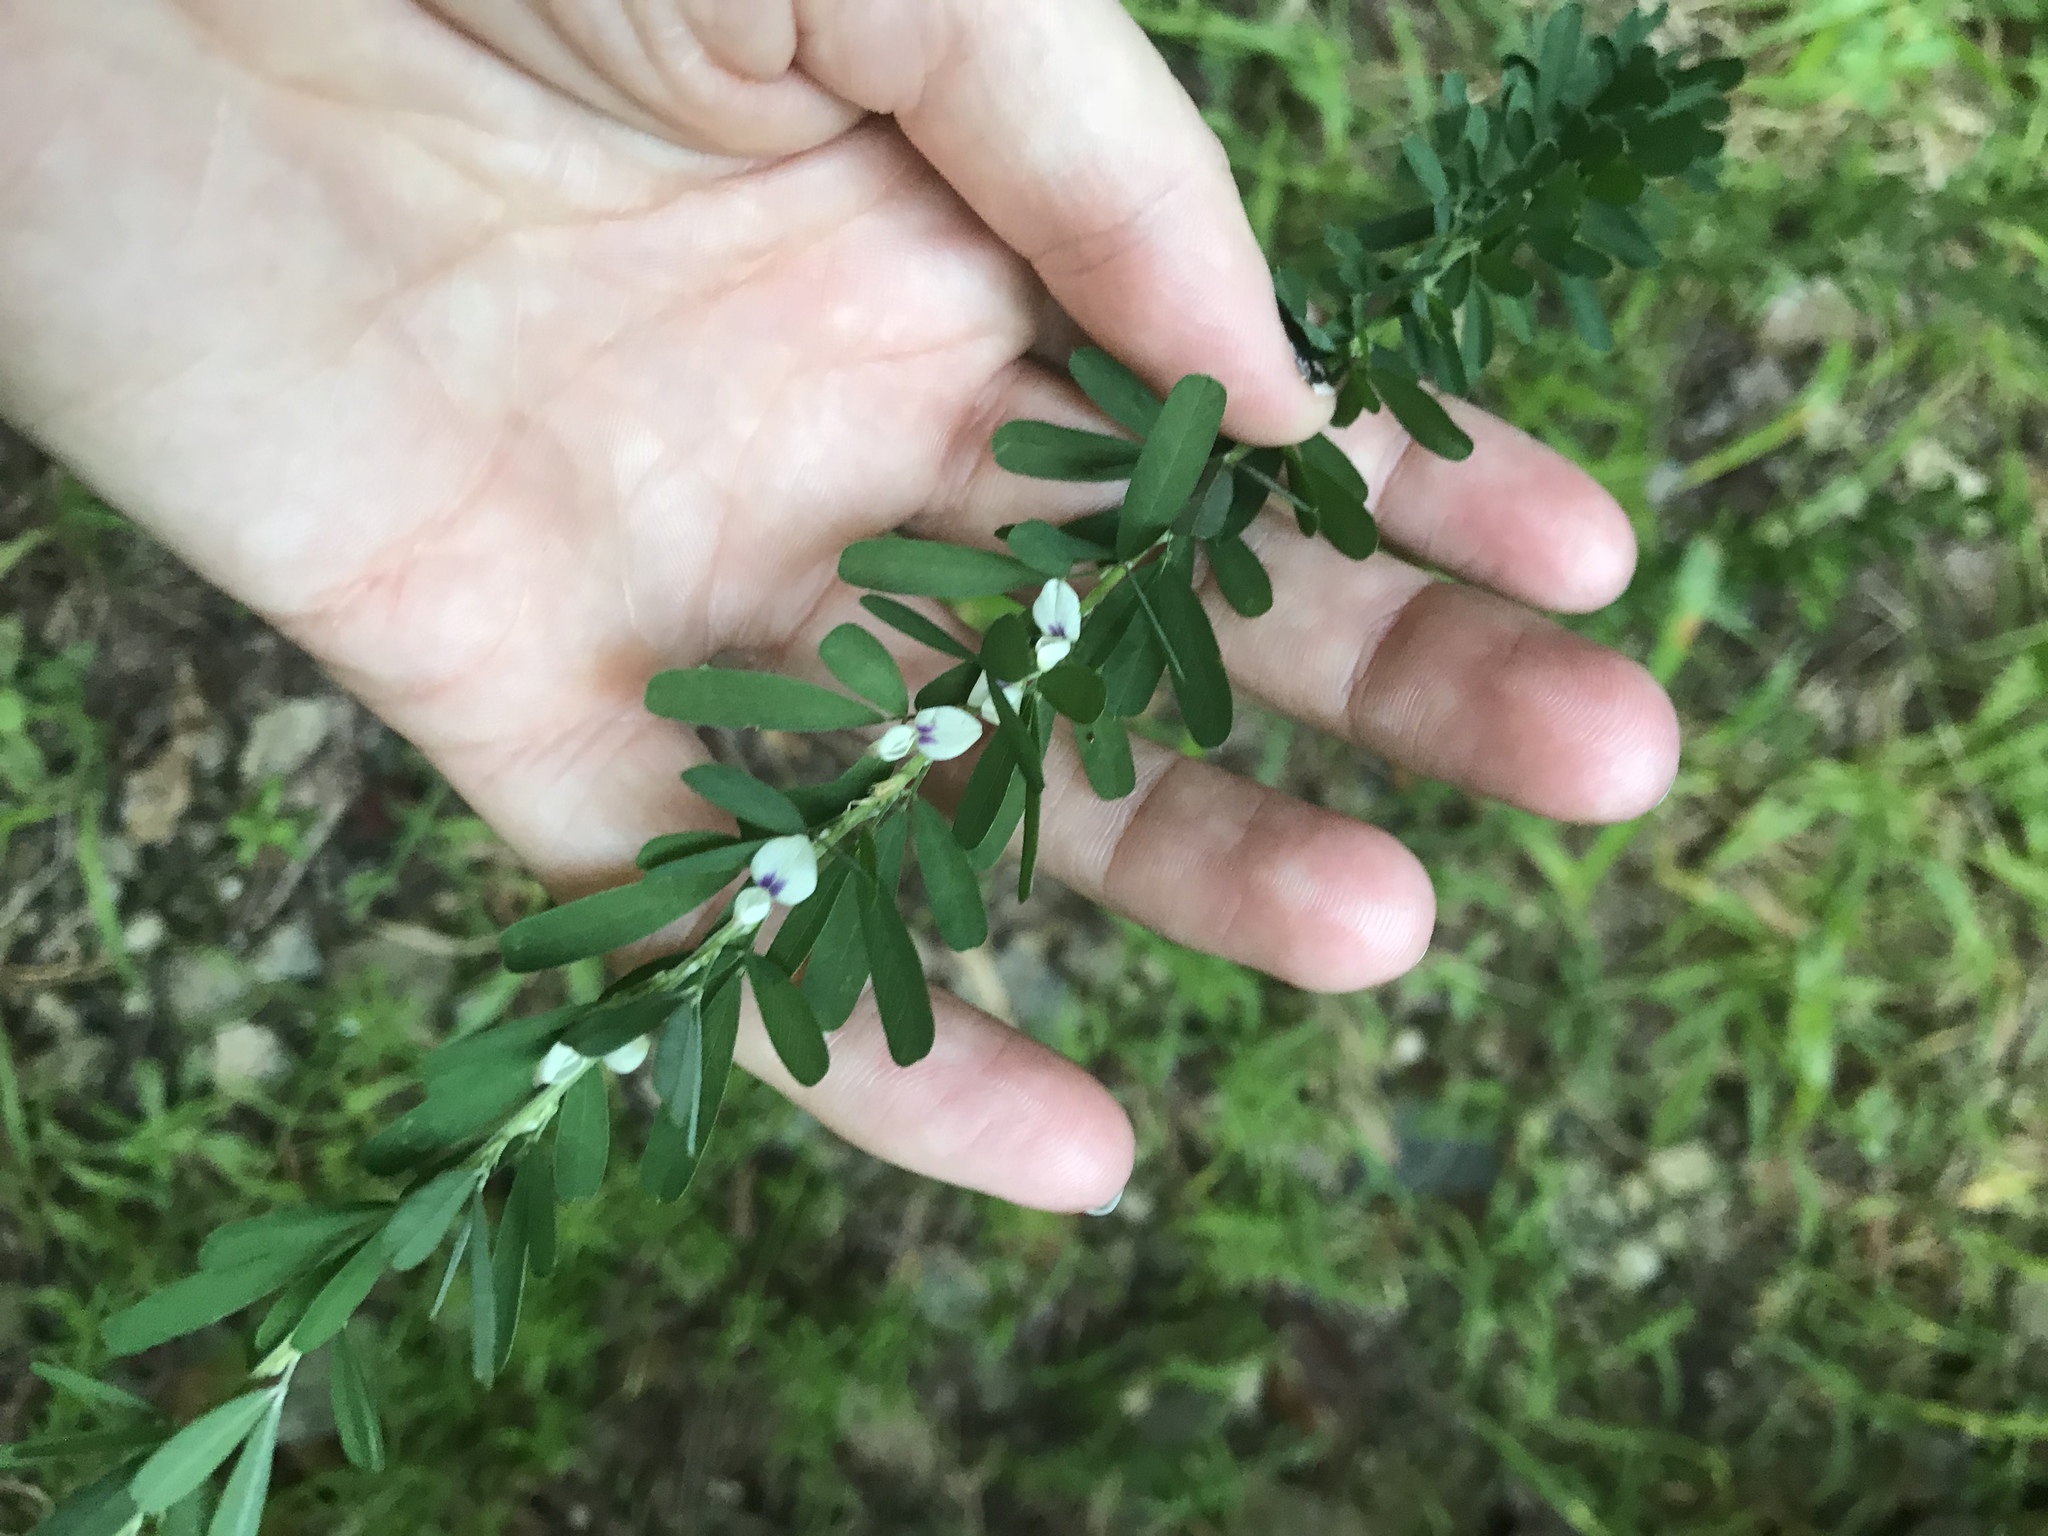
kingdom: Plantae
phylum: Tracheophyta
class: Magnoliopsida
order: Fabales
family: Fabaceae
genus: Lespedeza
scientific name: Lespedeza cuneata
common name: Chinese bush-clover
